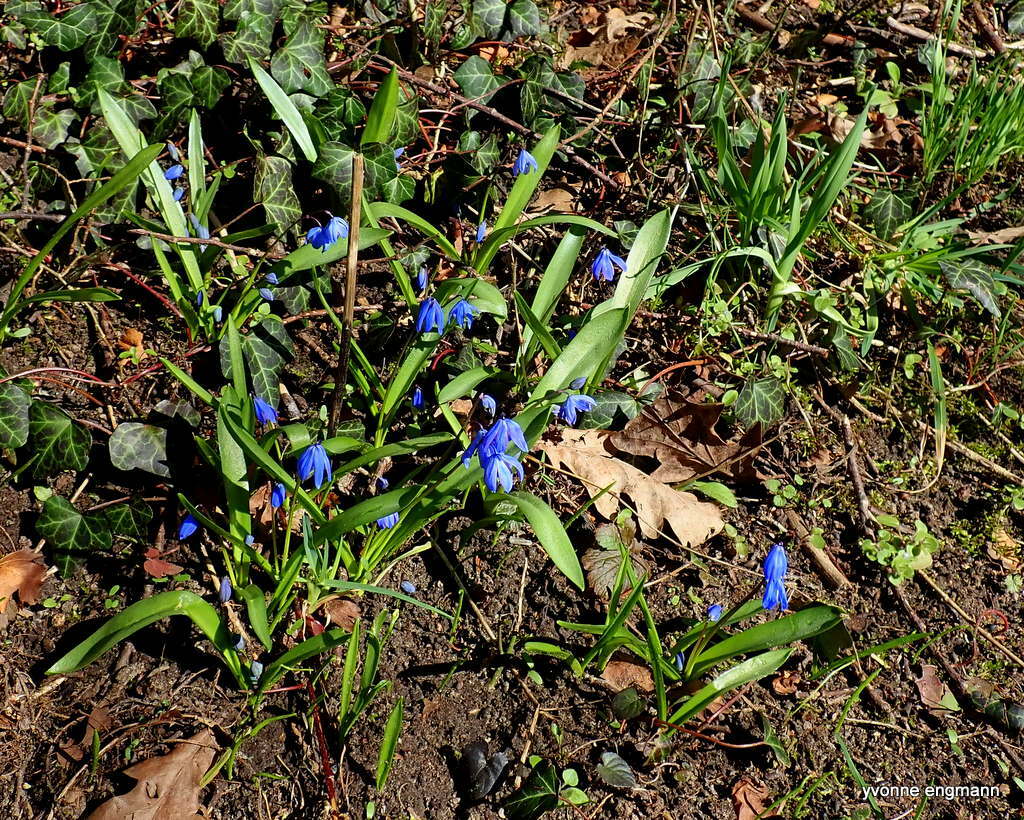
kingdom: Plantae
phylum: Tracheophyta
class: Liliopsida
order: Asparagales
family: Asparagaceae
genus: Scilla
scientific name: Scilla siberica
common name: Siberian squill
